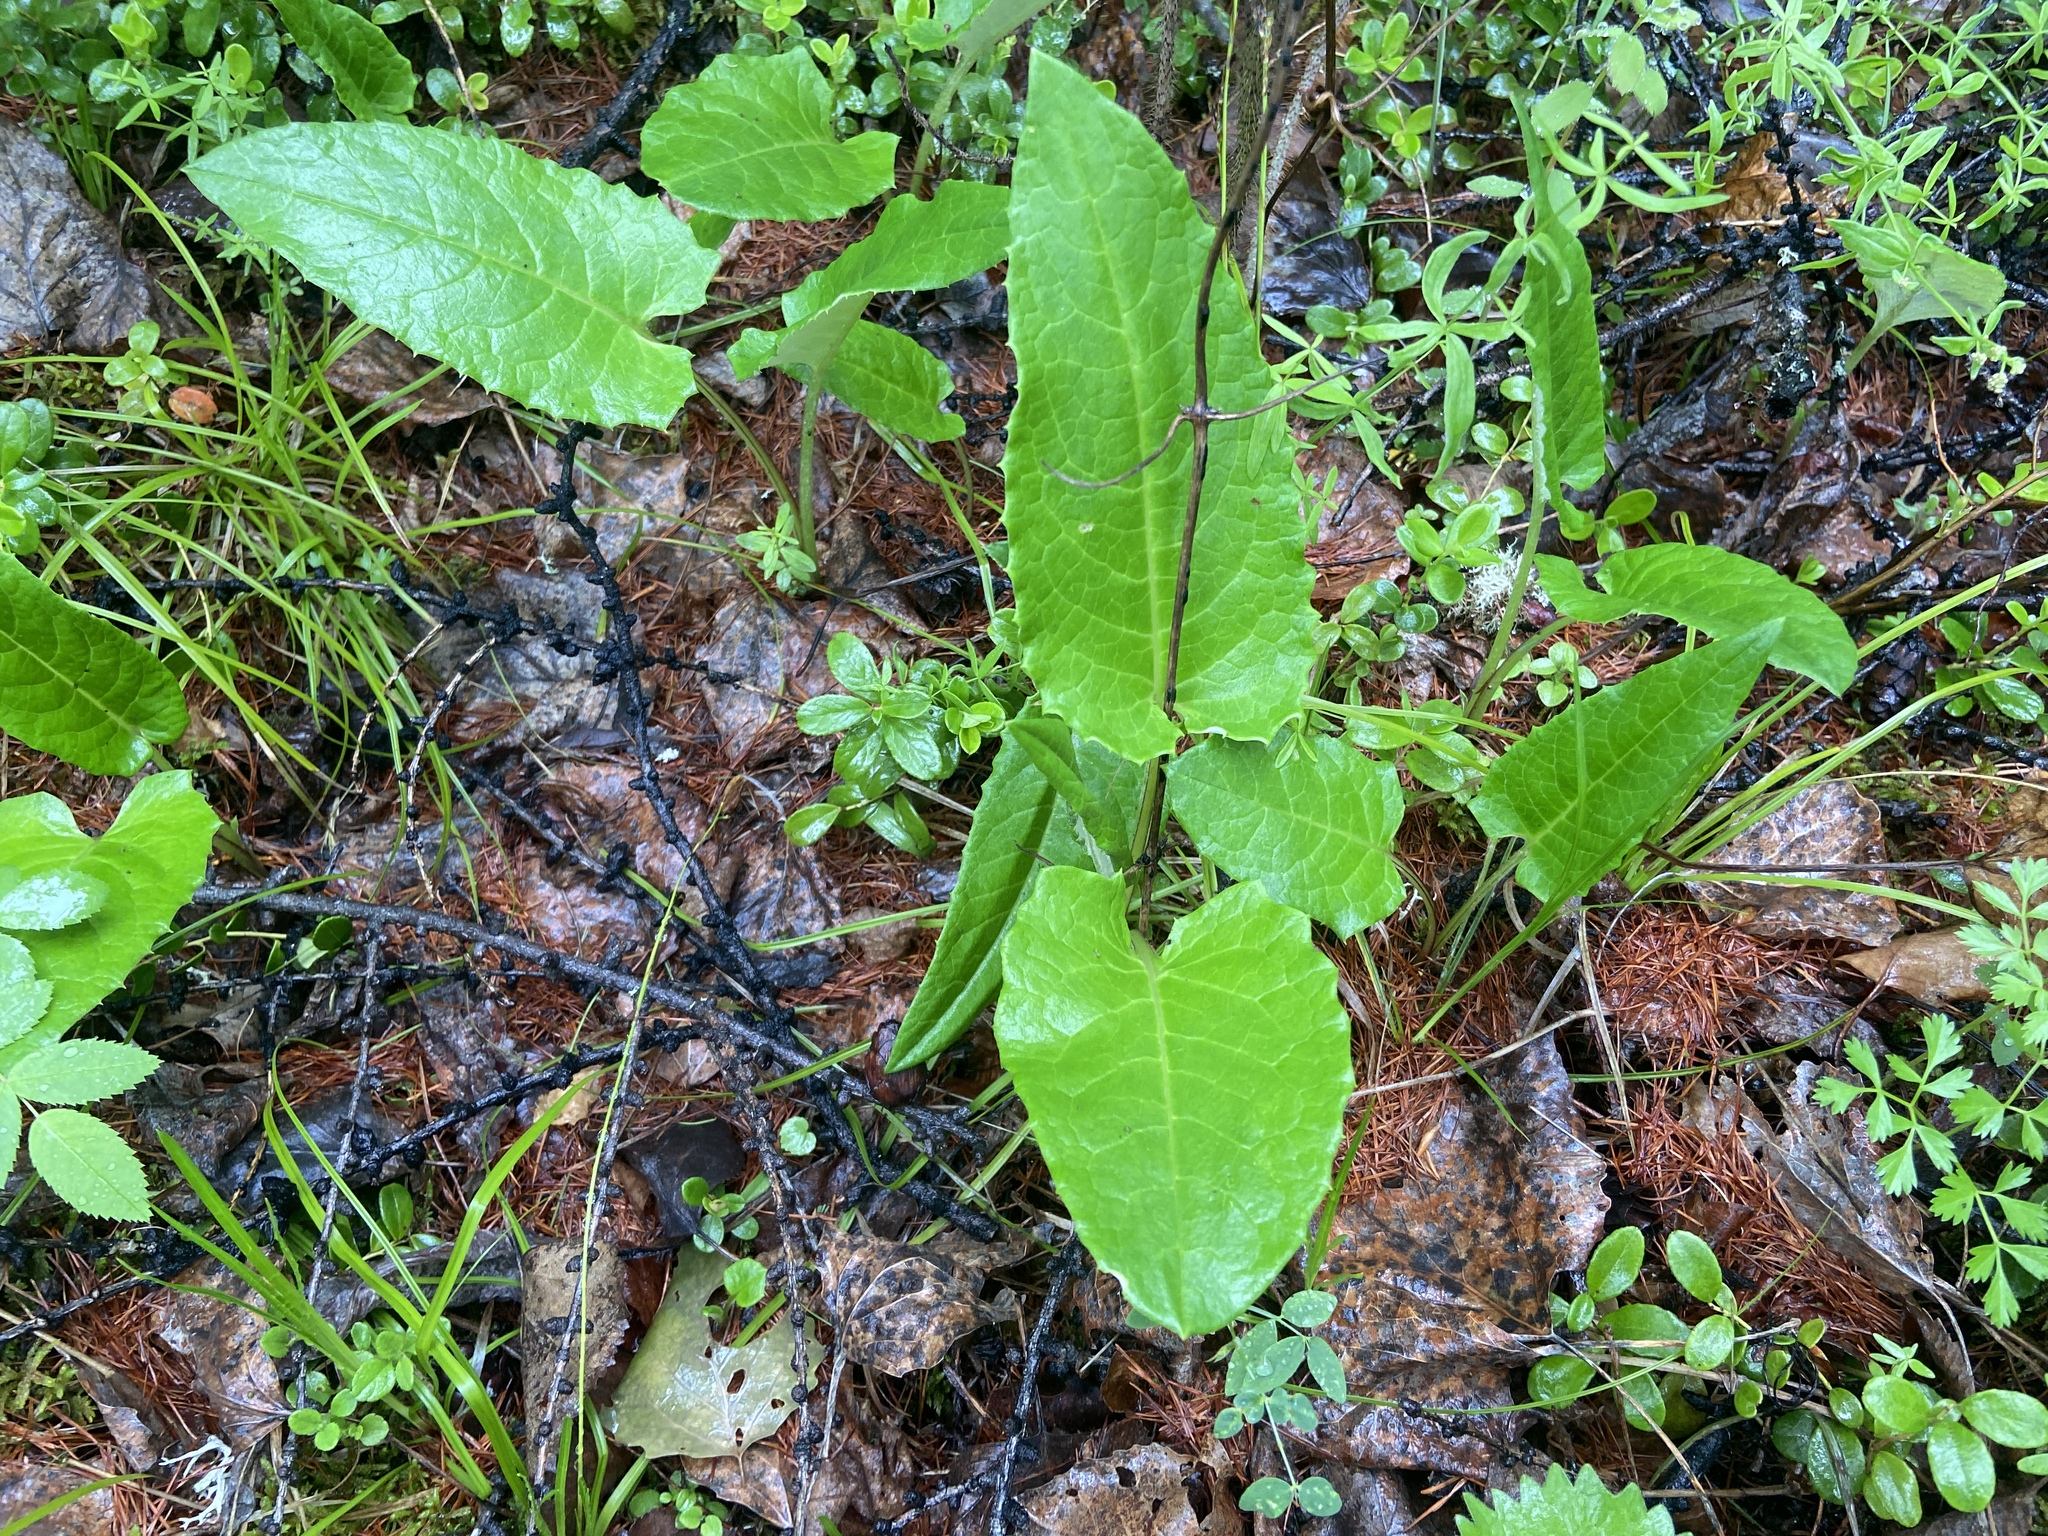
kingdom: Plantae
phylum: Tracheophyta
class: Magnoliopsida
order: Asterales
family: Asteraceae
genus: Saussurea
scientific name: Saussurea controversa
